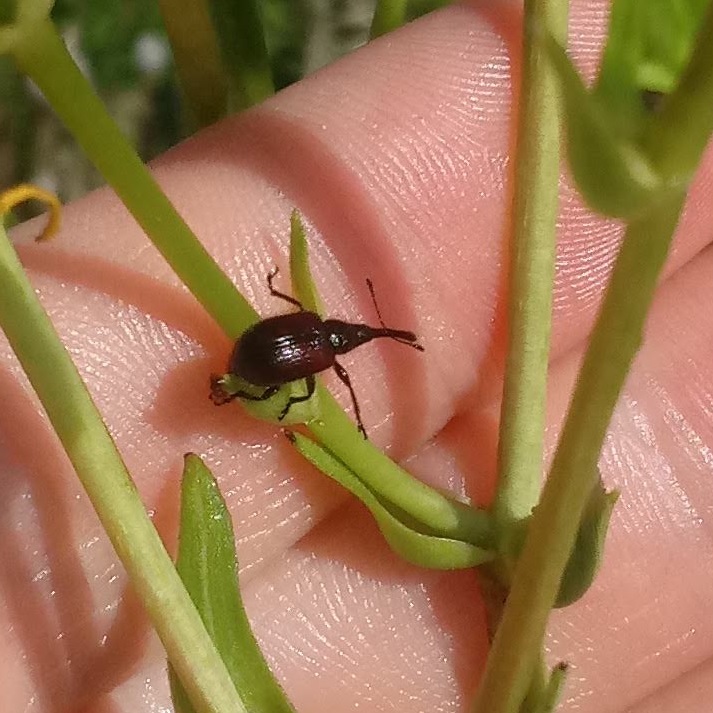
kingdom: Animalia
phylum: Arthropoda
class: Insecta
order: Coleoptera
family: Attelabidae
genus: Haplorhynchites
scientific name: Haplorhynchites aeneus
